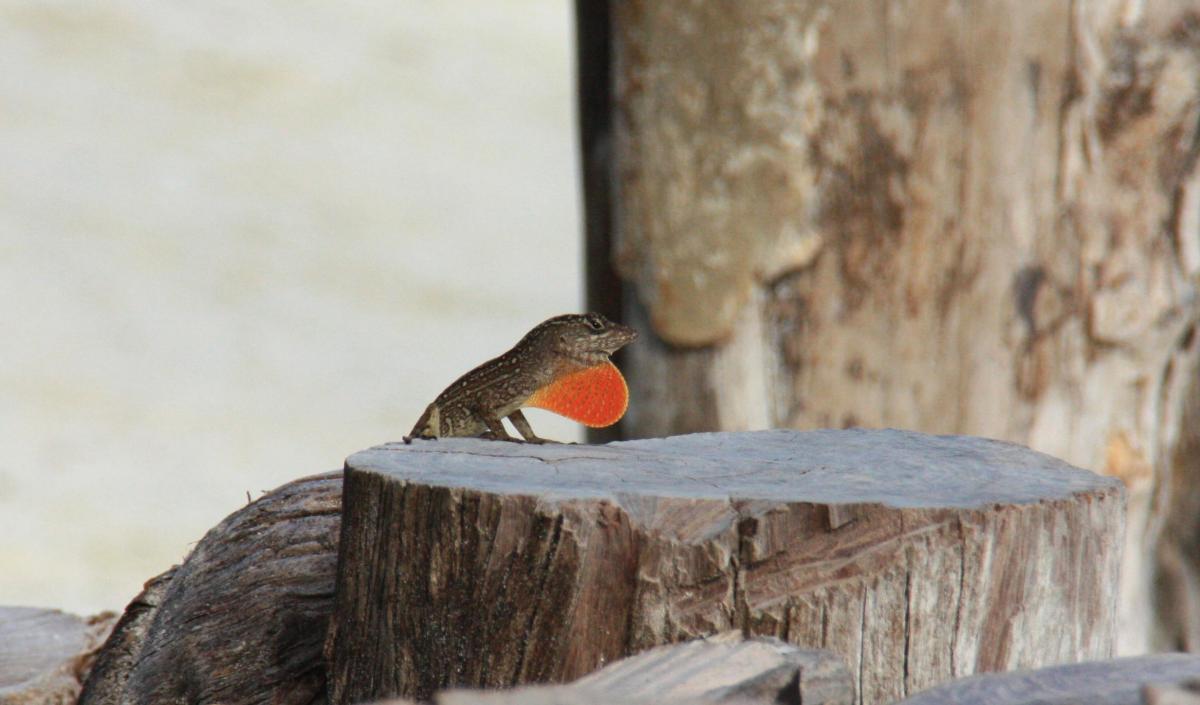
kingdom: Animalia
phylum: Chordata
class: Squamata
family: Dactyloidae
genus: Anolis
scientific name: Anolis sagrei
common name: Brown anole
